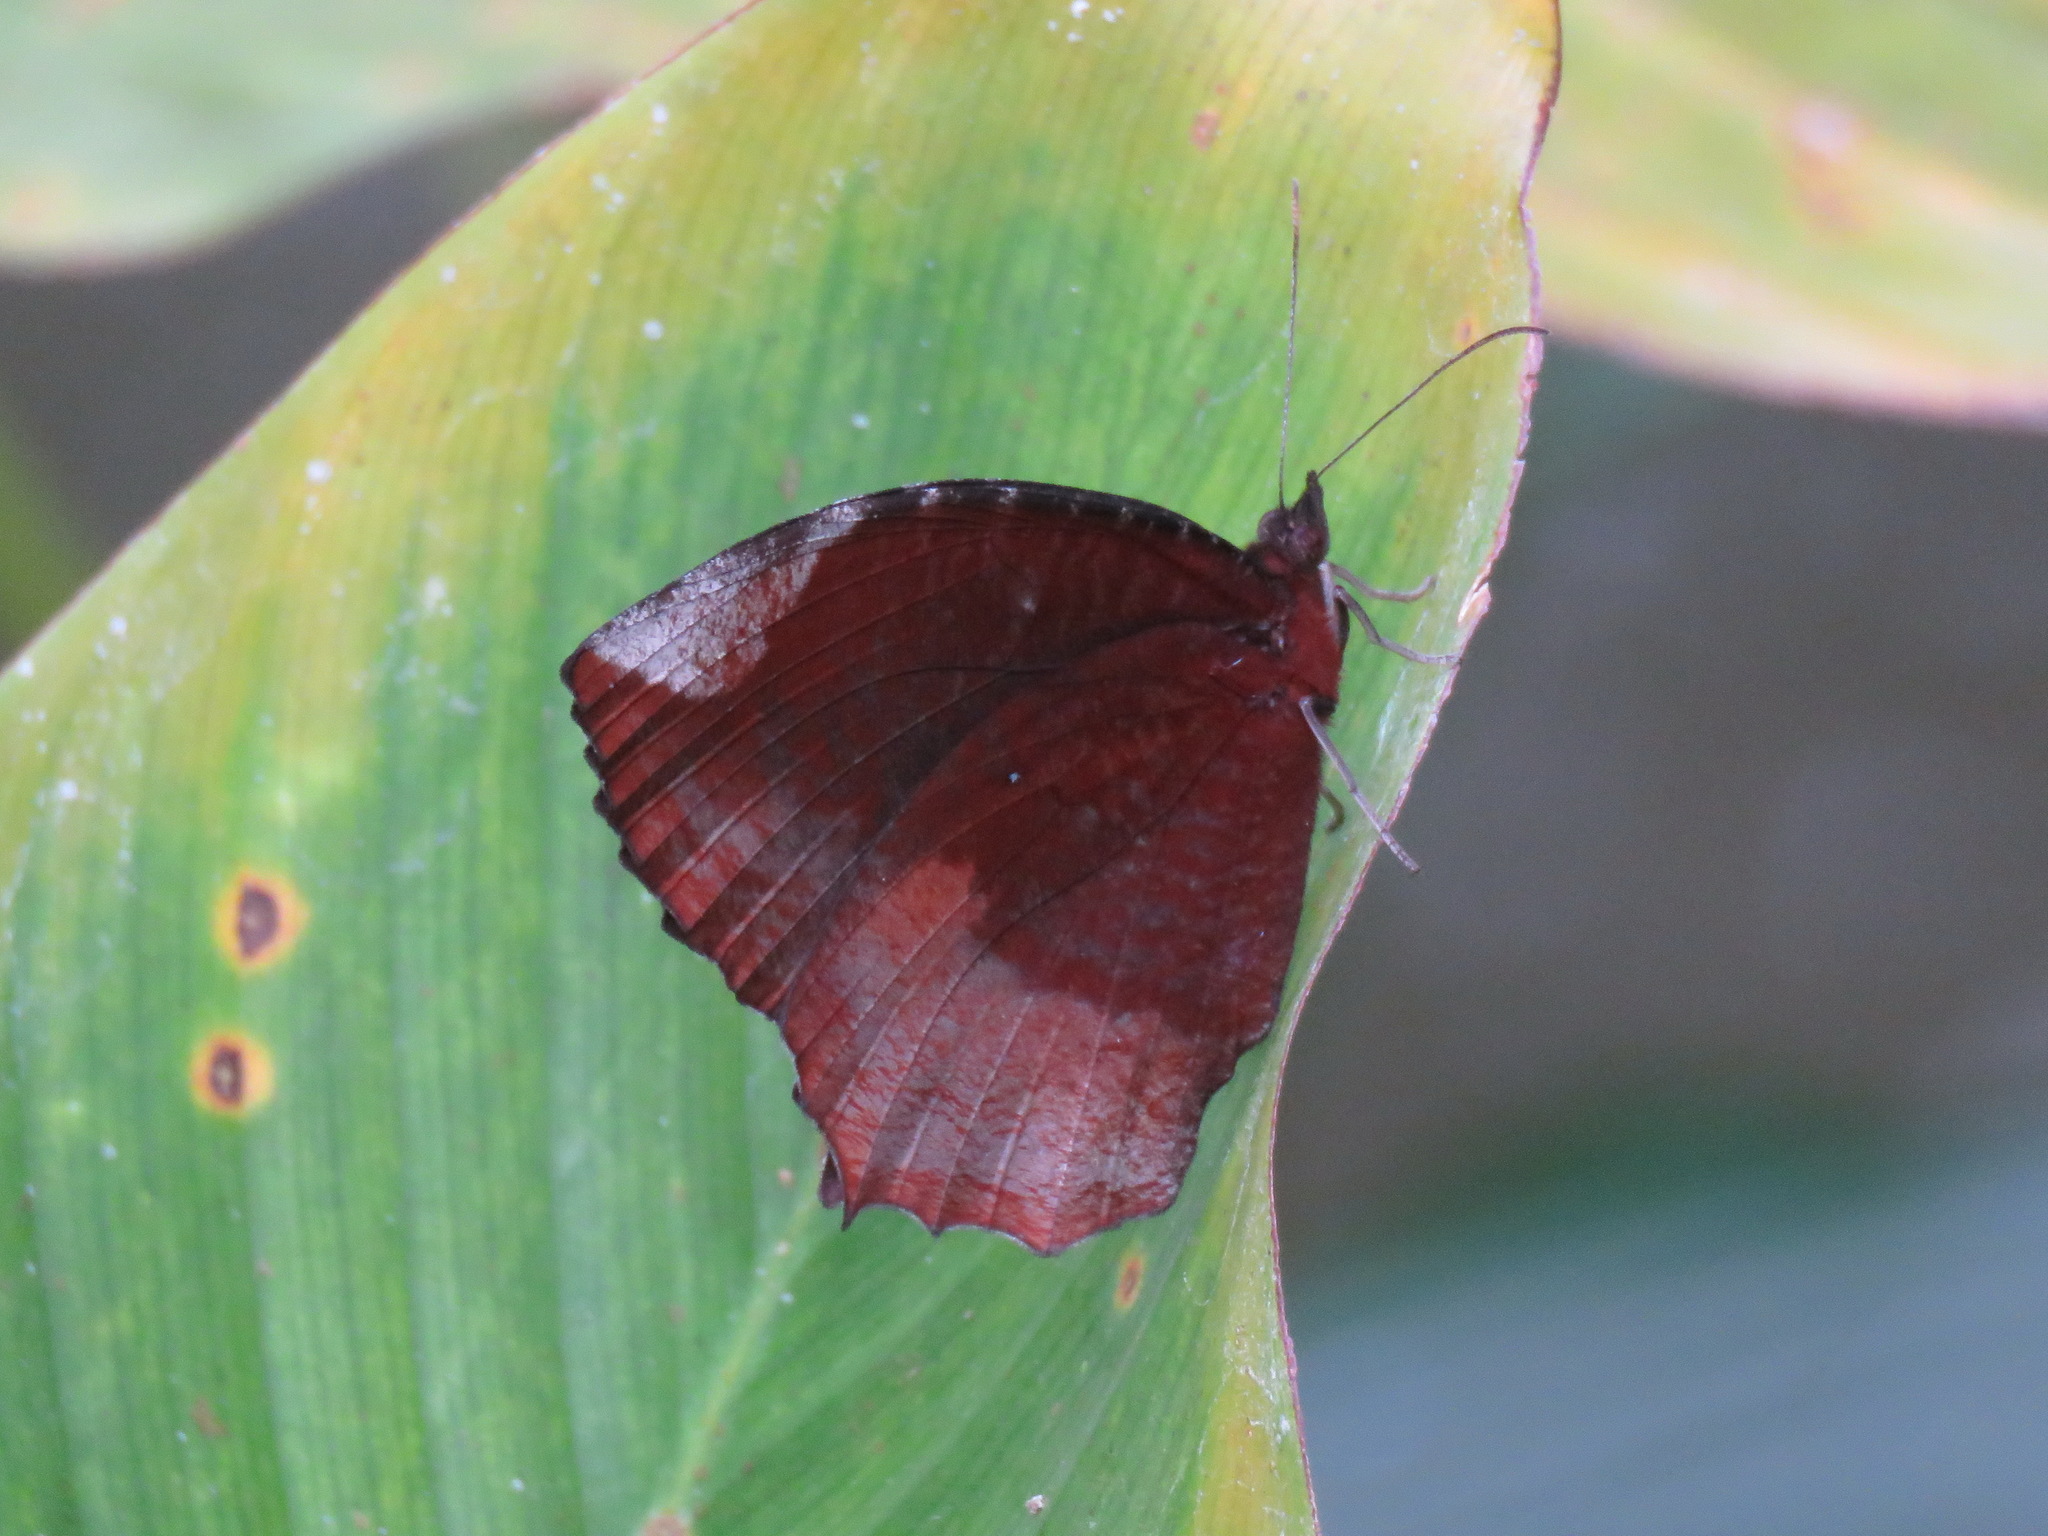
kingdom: Animalia
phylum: Arthropoda
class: Insecta
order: Lepidoptera
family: Nymphalidae
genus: Elymnias
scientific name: Elymnias hypermnestra
